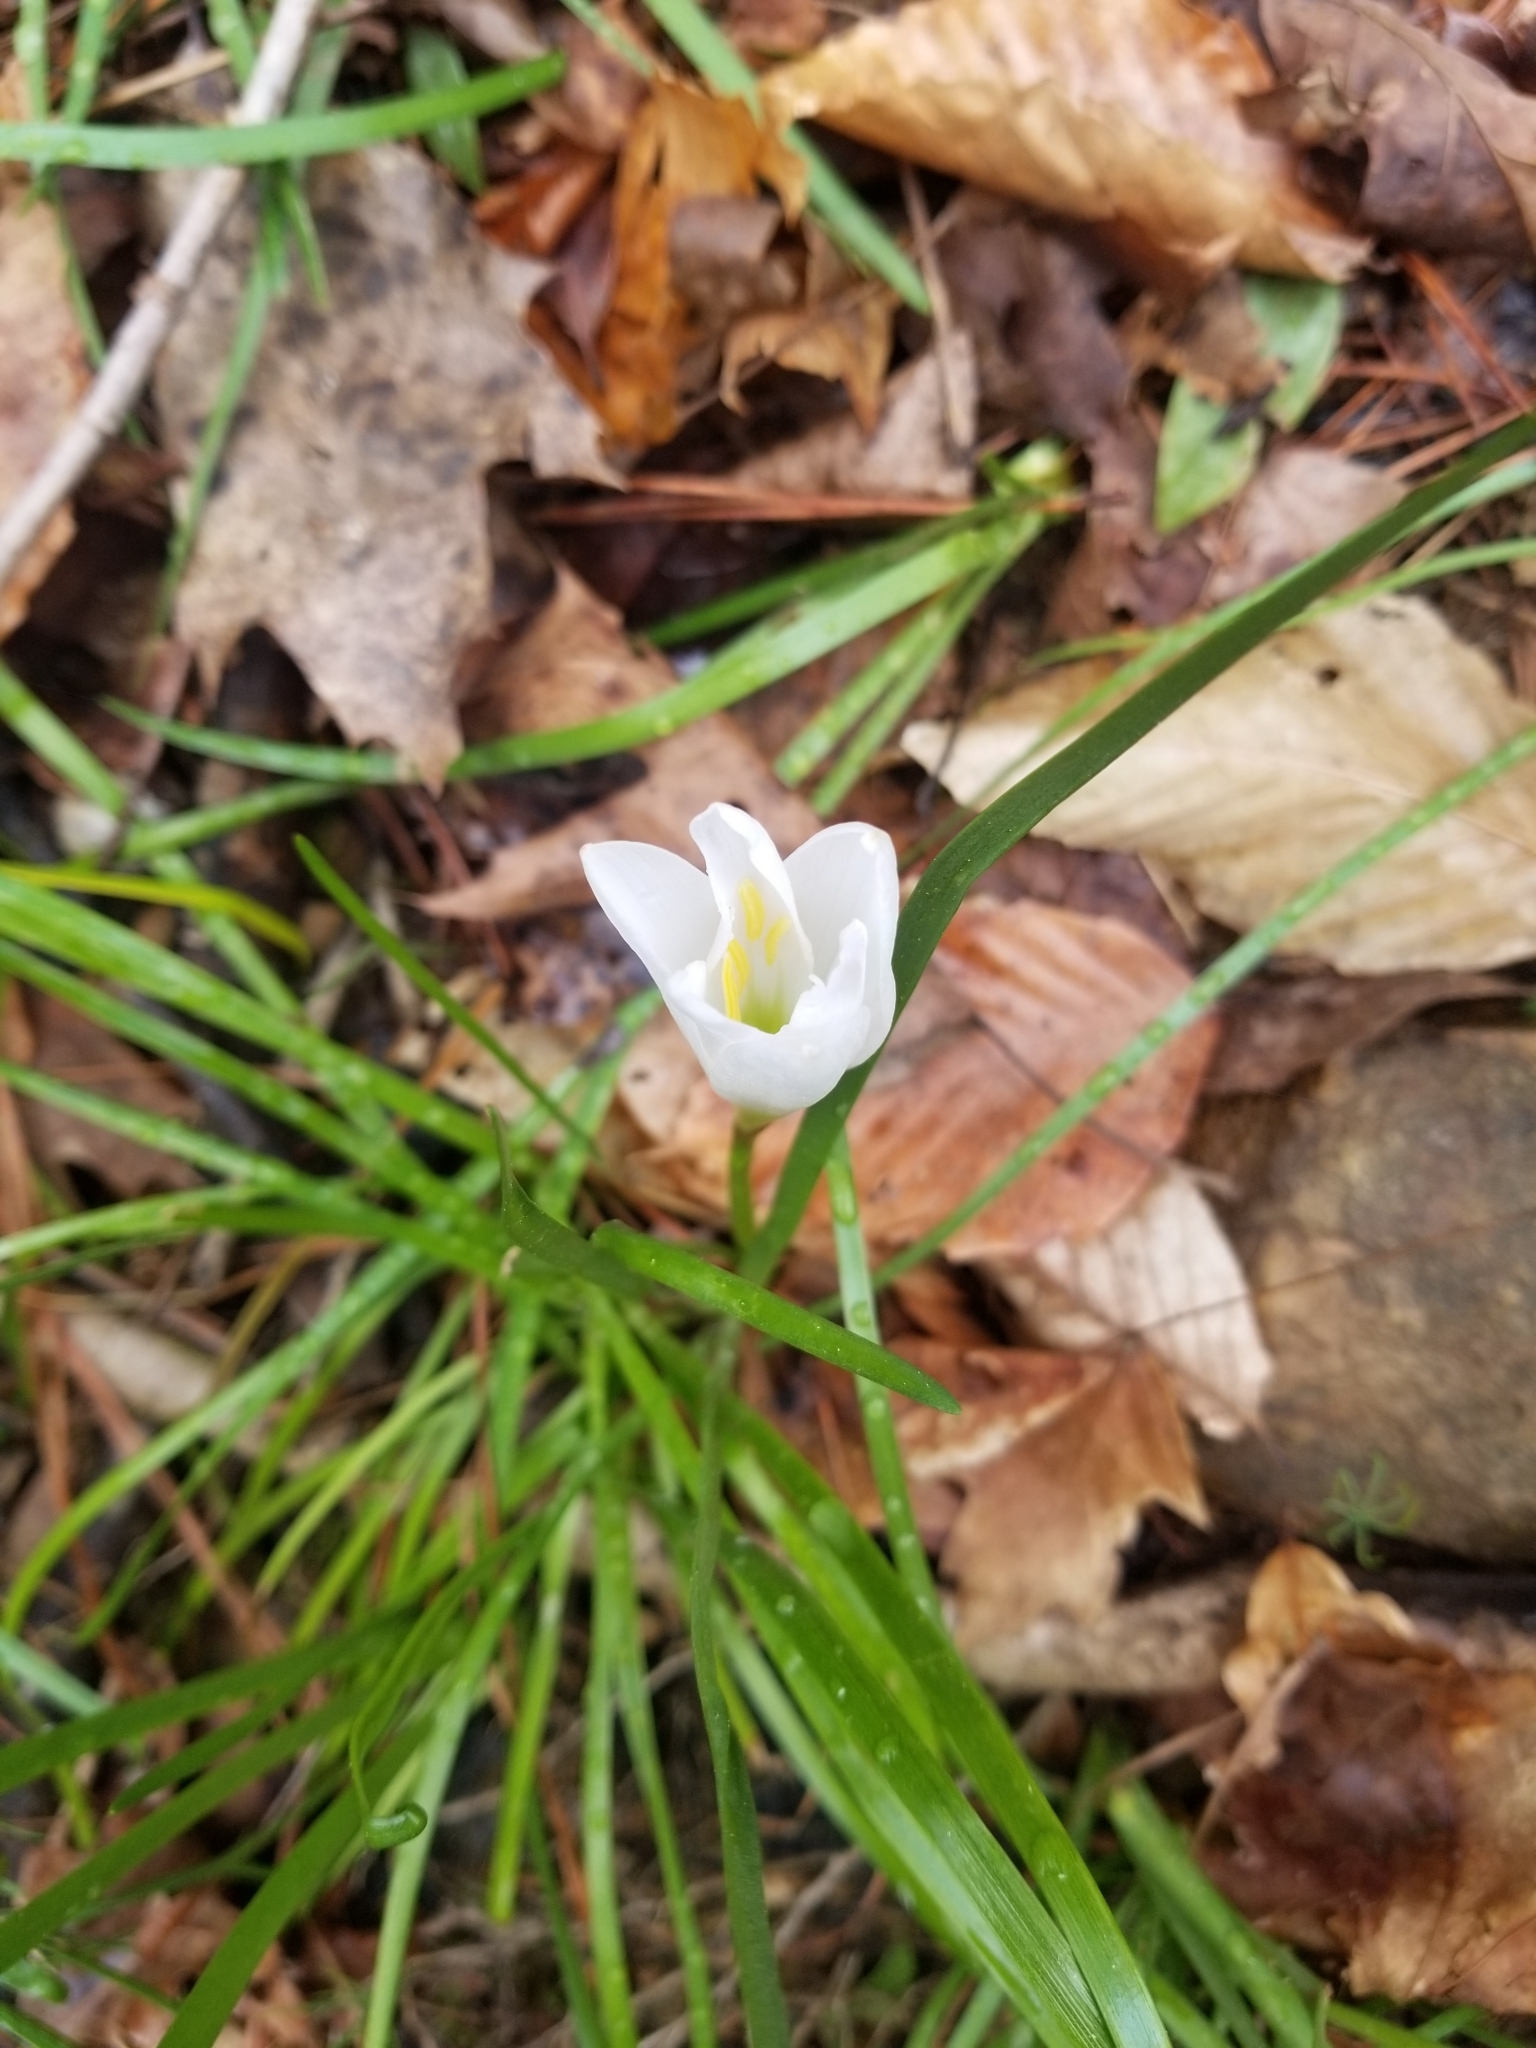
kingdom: Plantae
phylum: Tracheophyta
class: Liliopsida
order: Asparagales
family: Amaryllidaceae
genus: Zephyranthes
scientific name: Zephyranthes atamasco
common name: Atamasco lily
